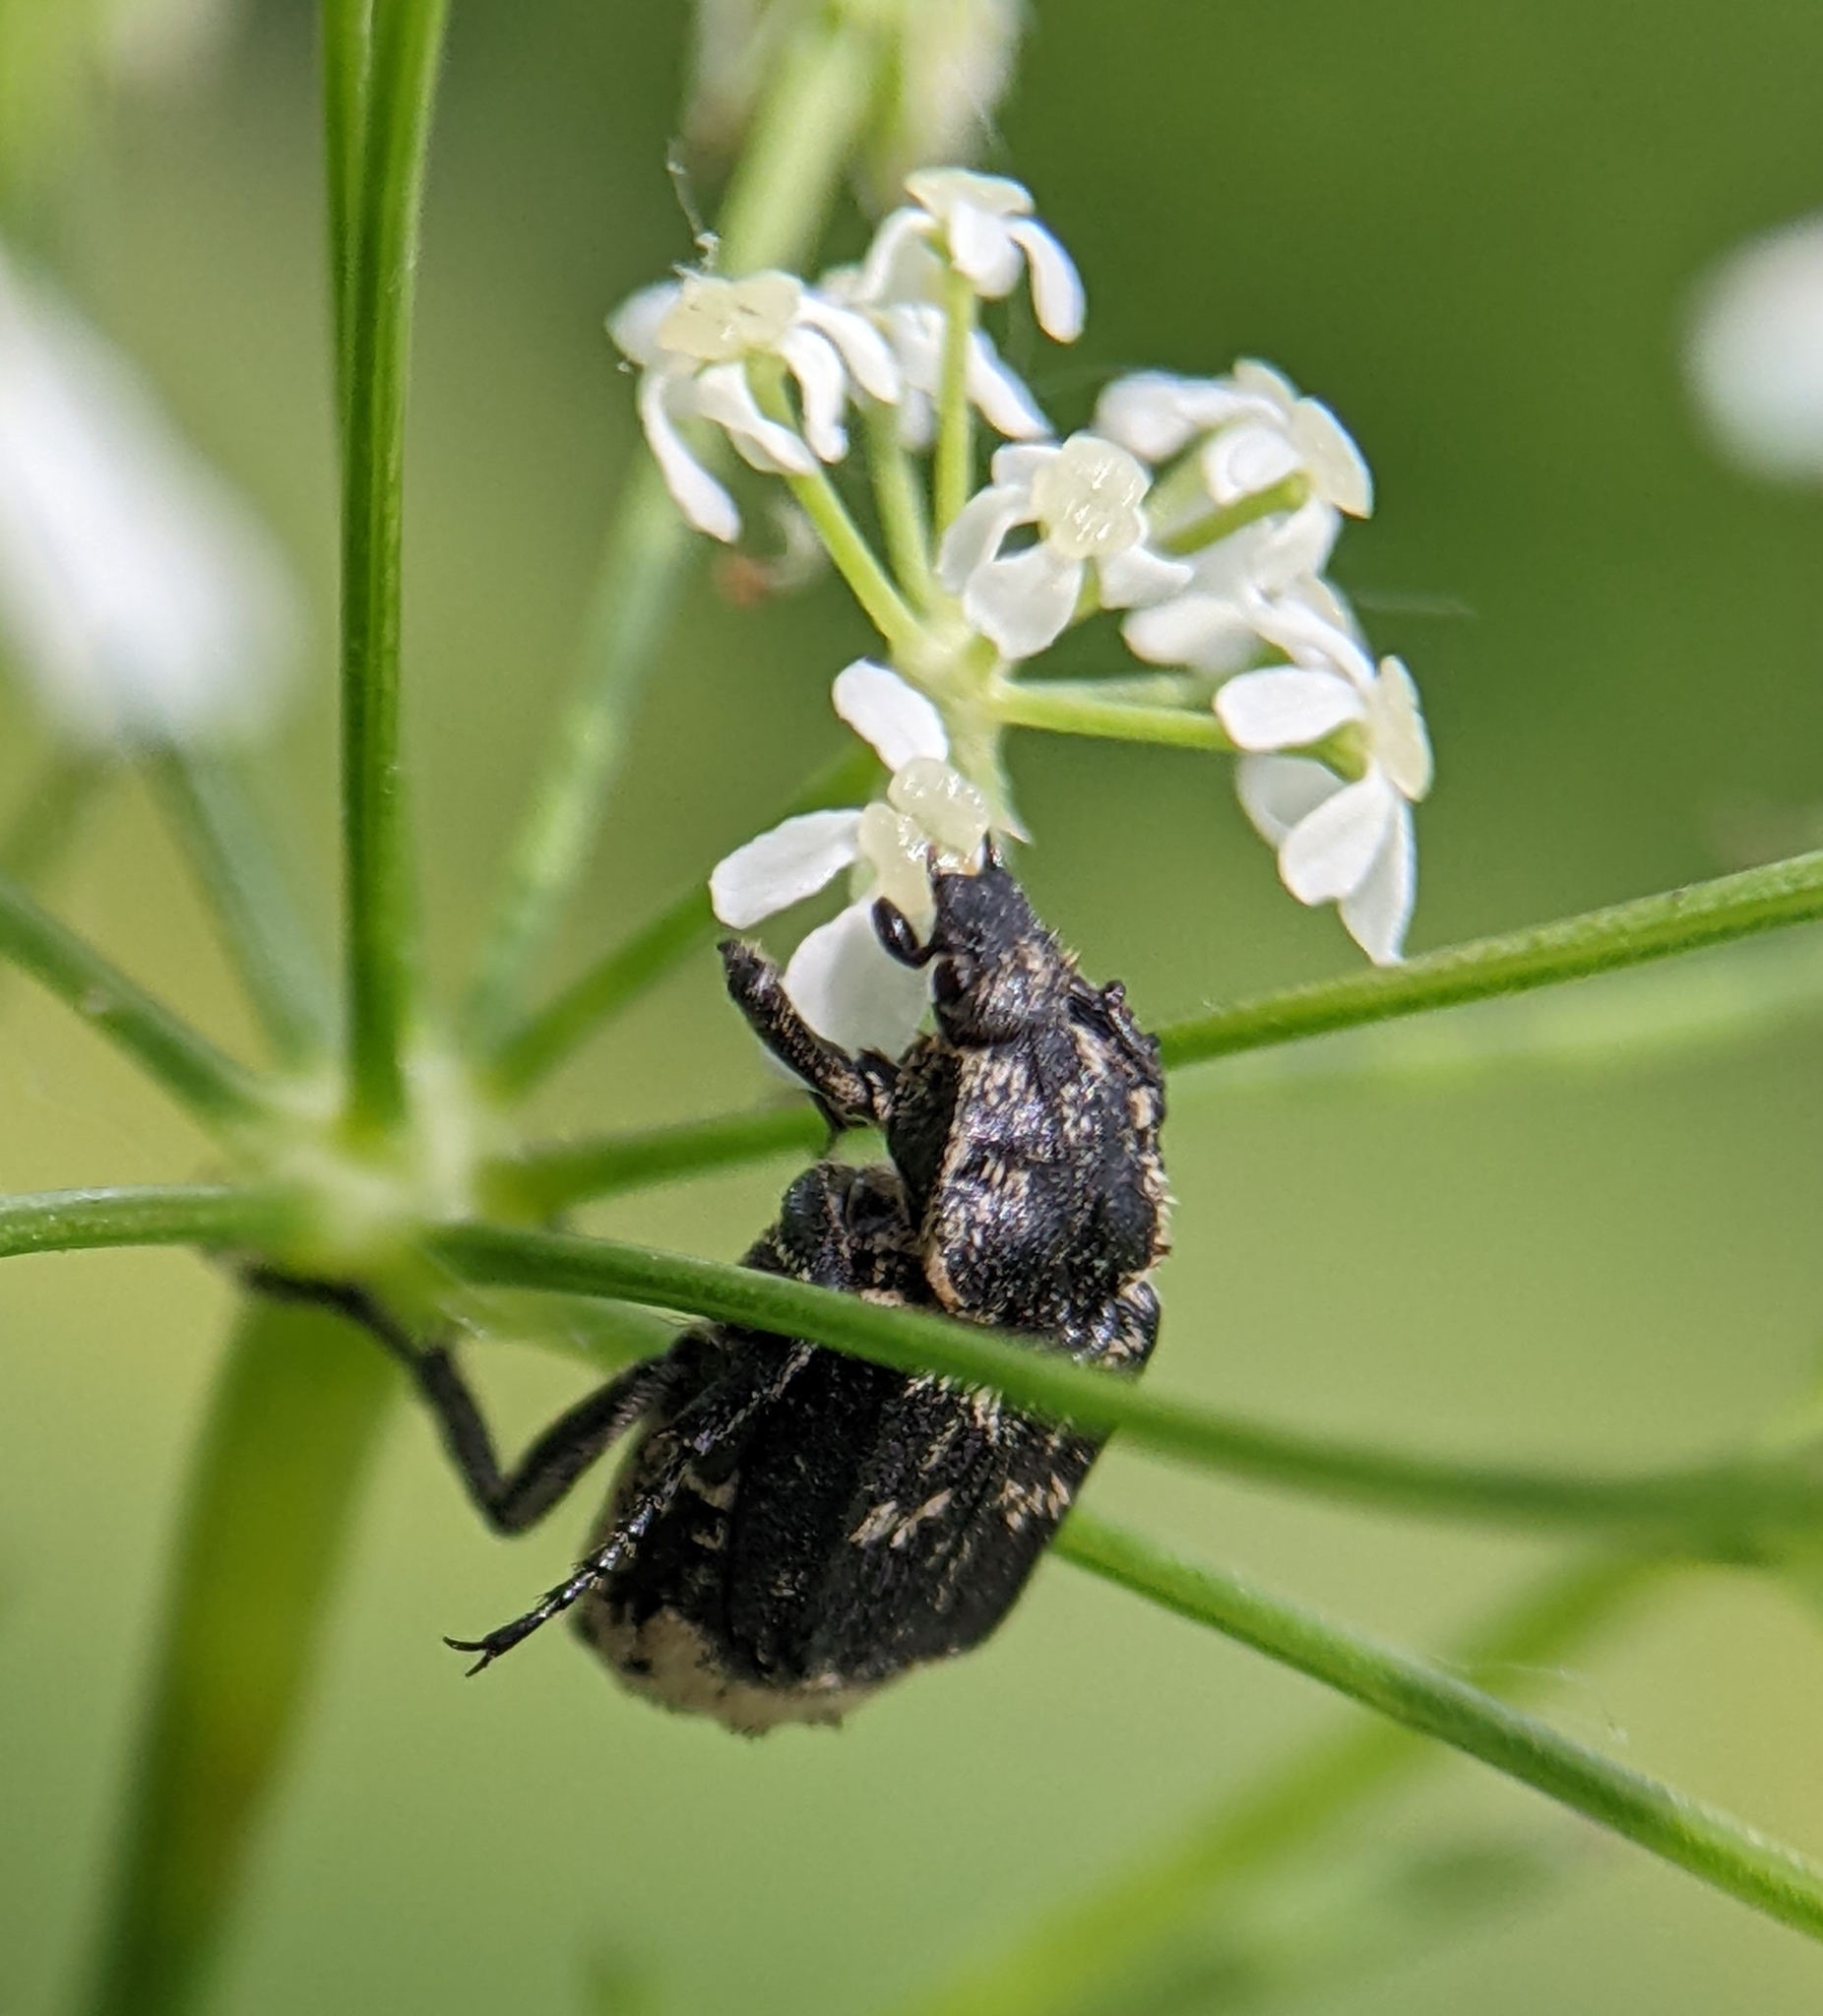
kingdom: Animalia
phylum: Arthropoda
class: Insecta
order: Coleoptera
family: Scarabaeidae
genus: Valgus
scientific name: Valgus hemipterus
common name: Bug flower chafer
